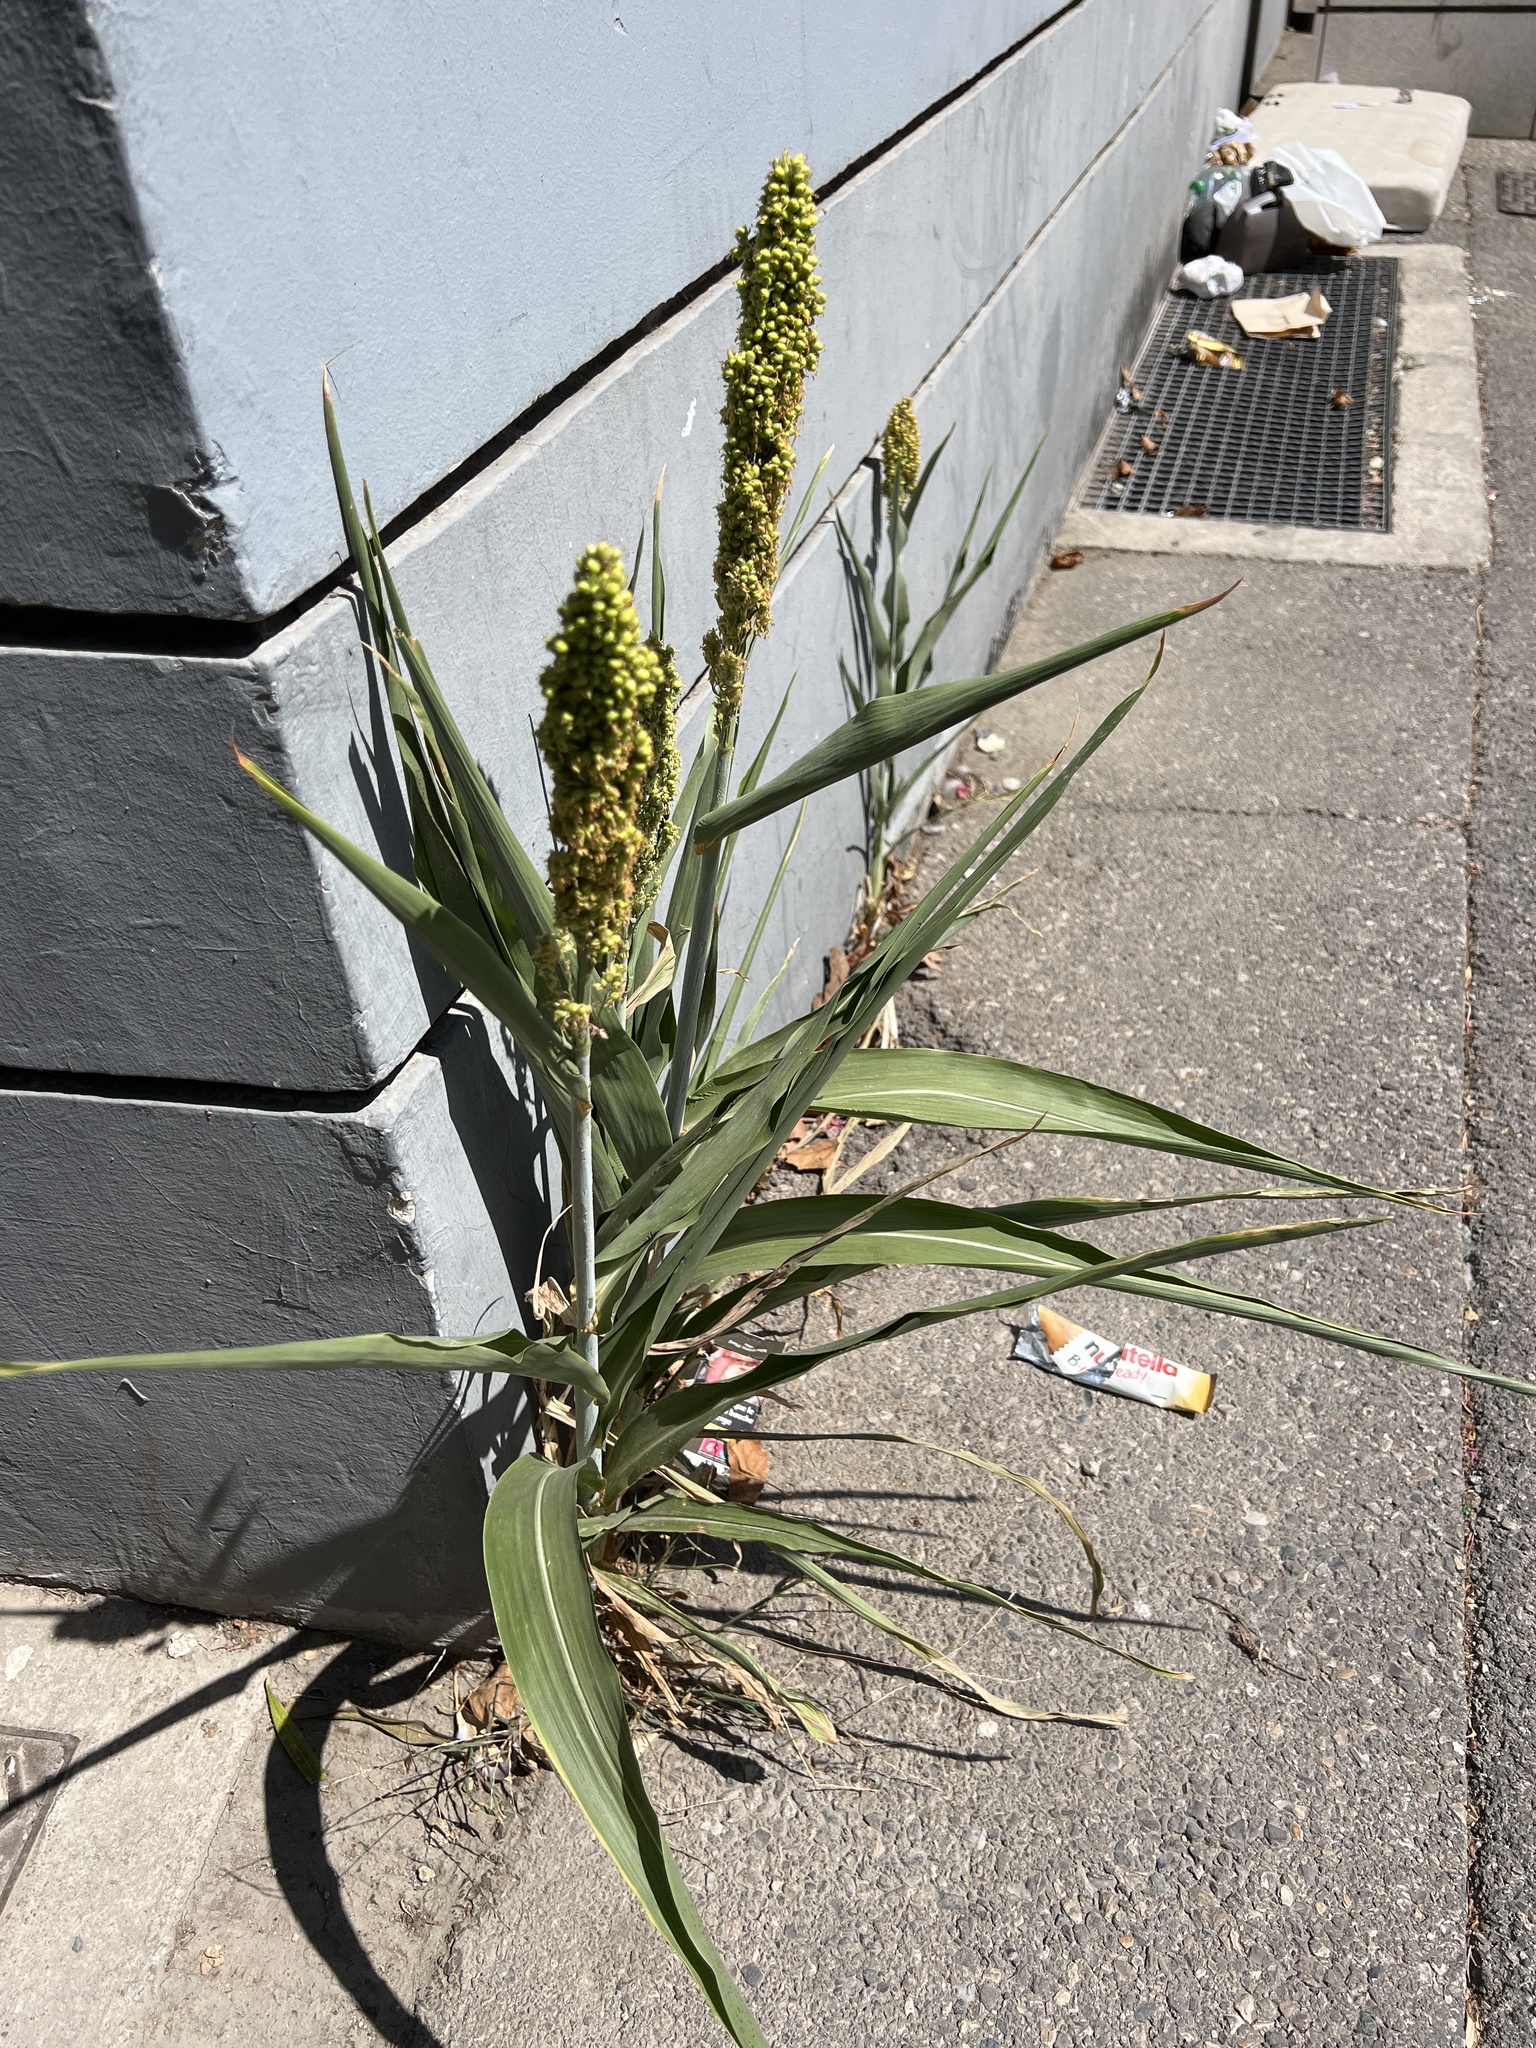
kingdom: Plantae
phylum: Tracheophyta
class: Liliopsida
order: Poales
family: Poaceae
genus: Sorghum
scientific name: Sorghum bicolor
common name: Sorghum
